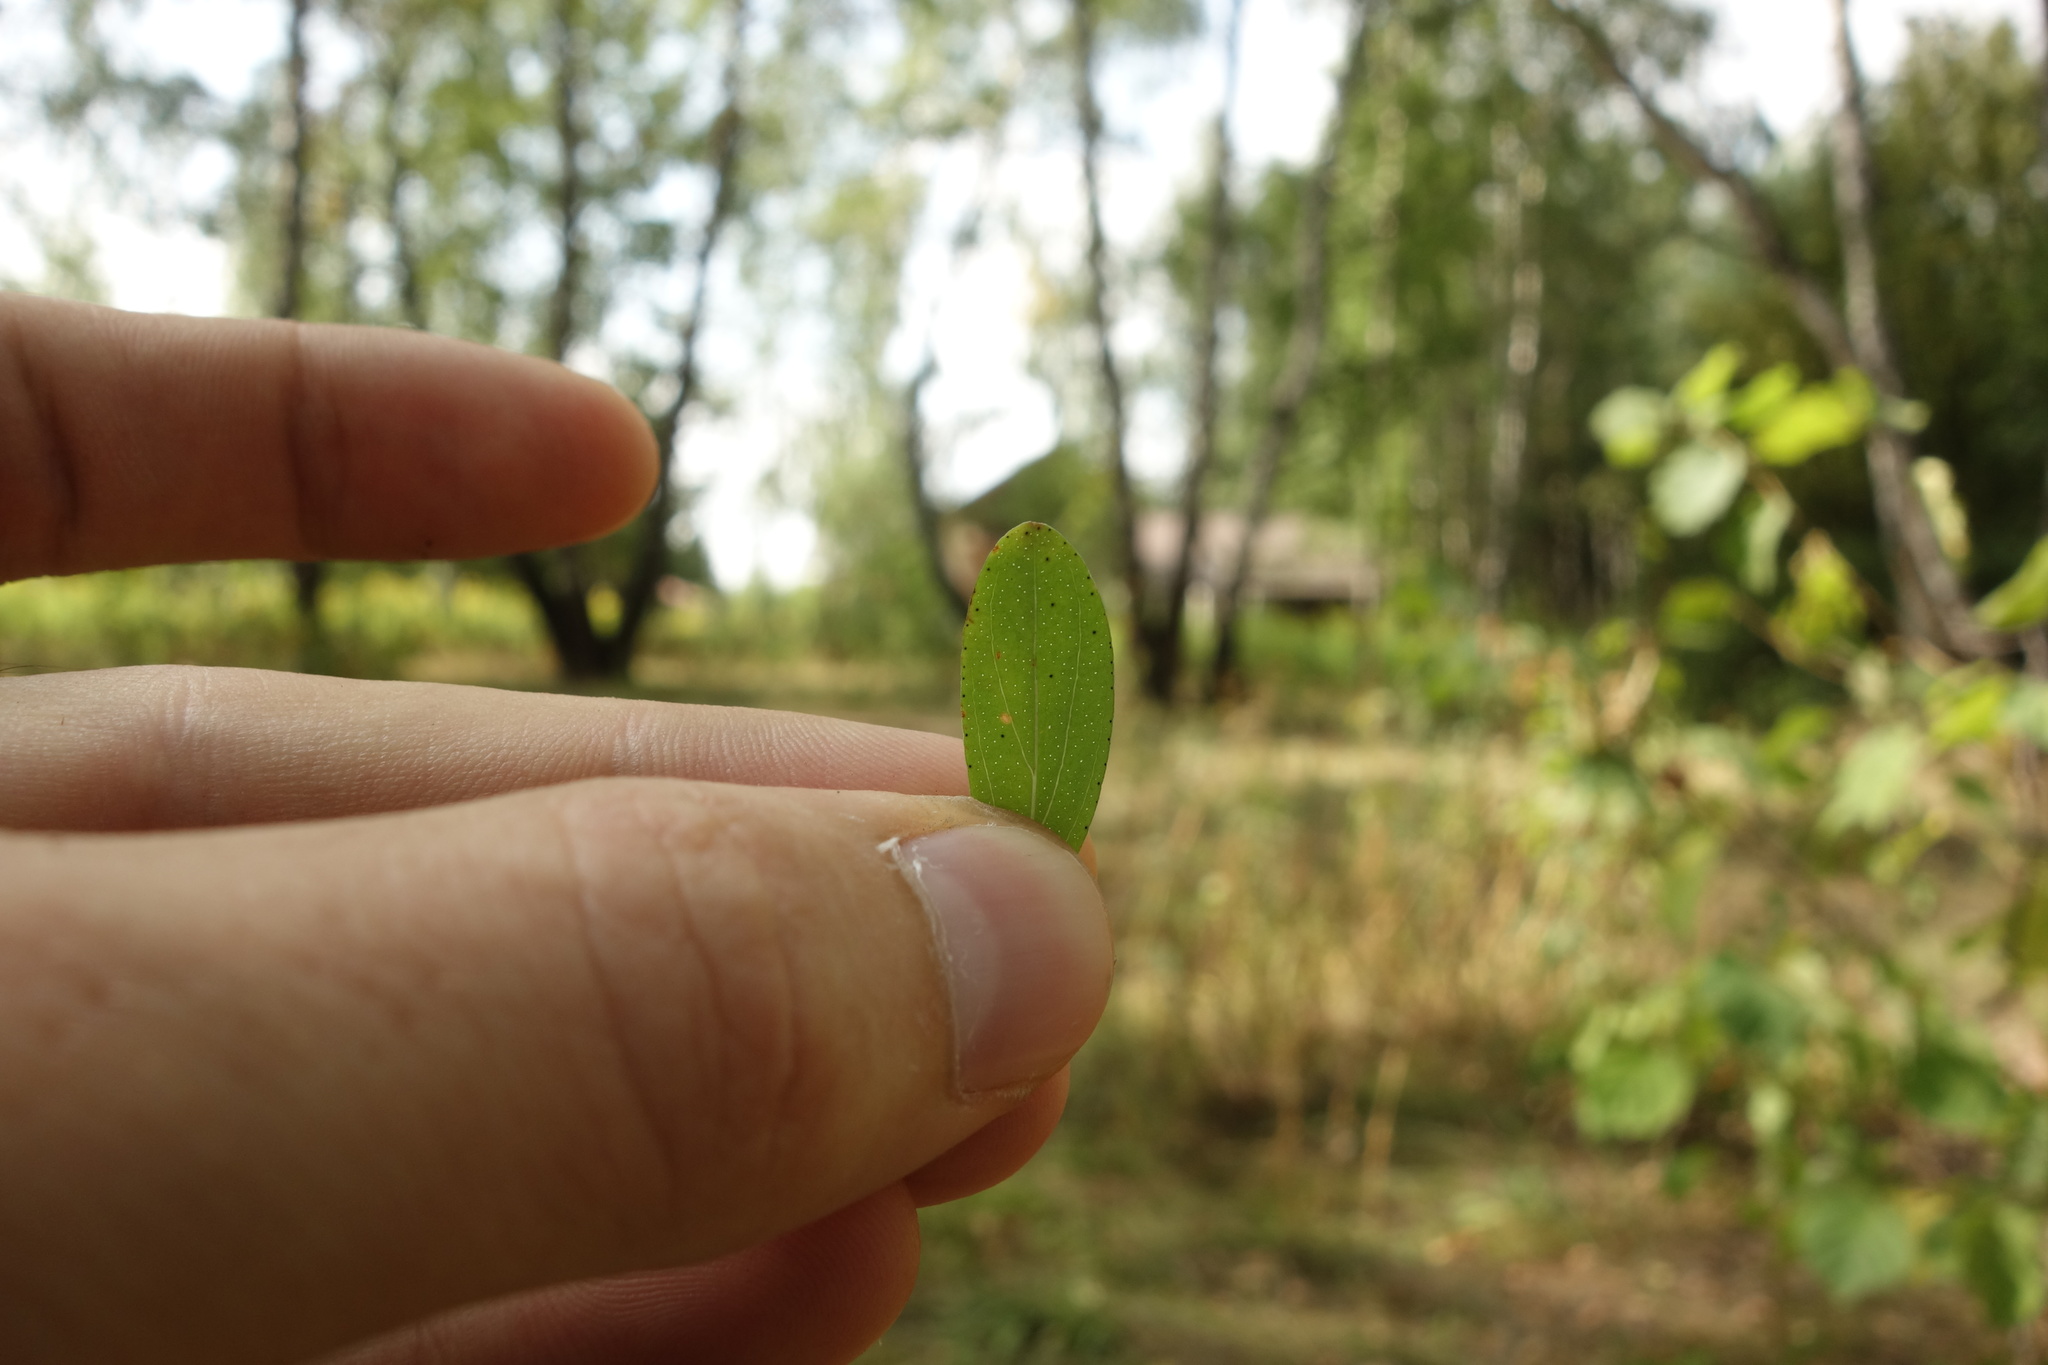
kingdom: Plantae
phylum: Tracheophyta
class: Magnoliopsida
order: Malpighiales
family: Hypericaceae
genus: Hypericum
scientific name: Hypericum perforatum
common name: Common st. johnswort
